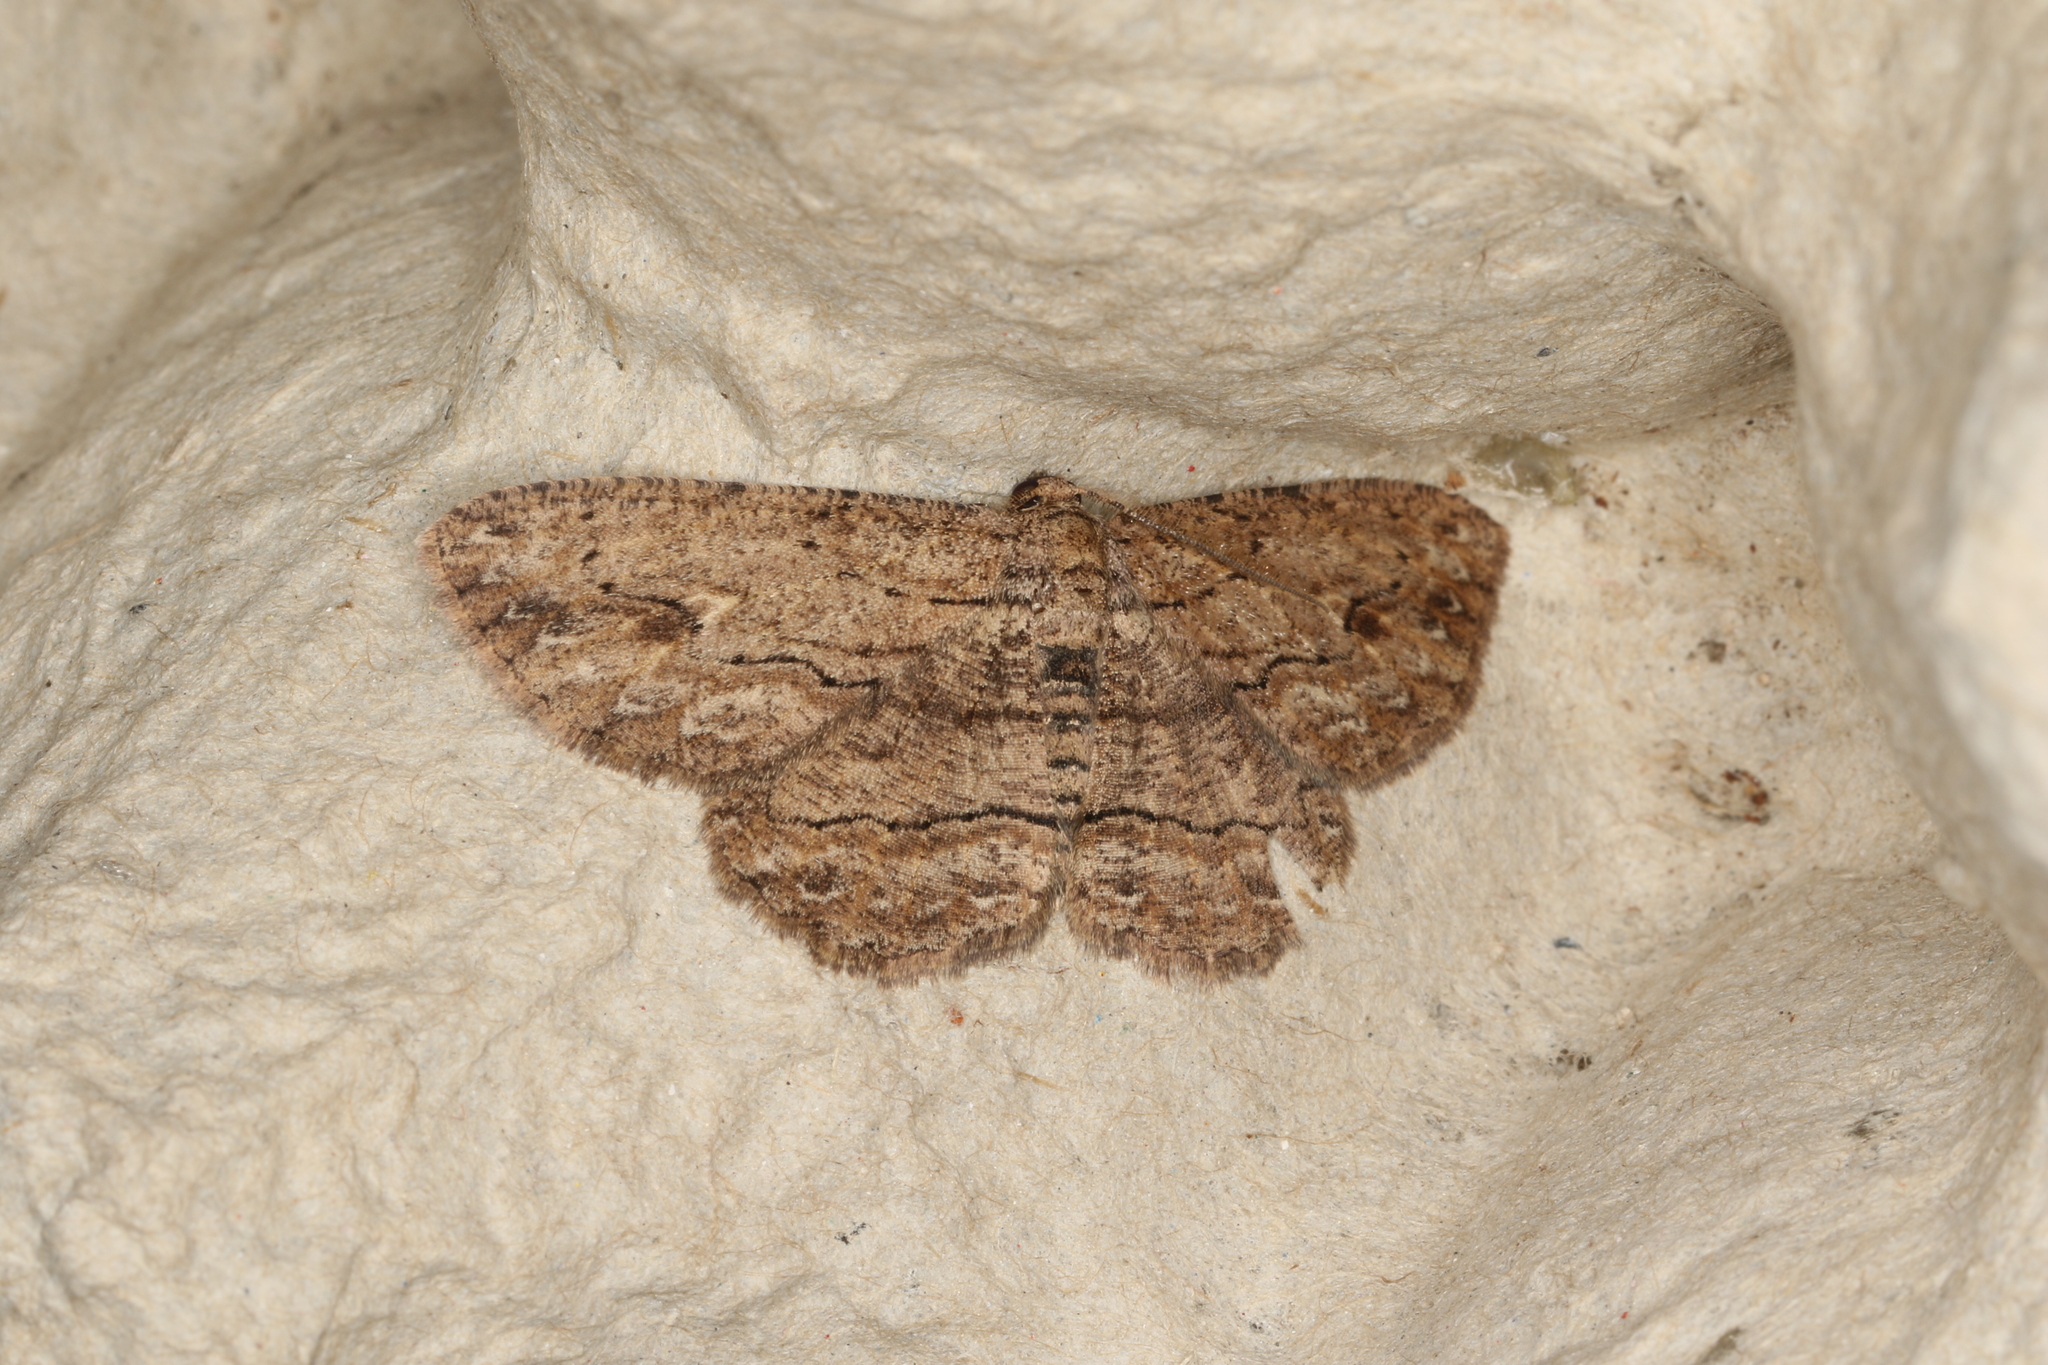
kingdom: Animalia
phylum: Arthropoda
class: Insecta
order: Lepidoptera
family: Geometridae
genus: Ectropis
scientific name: Ectropis excursaria
